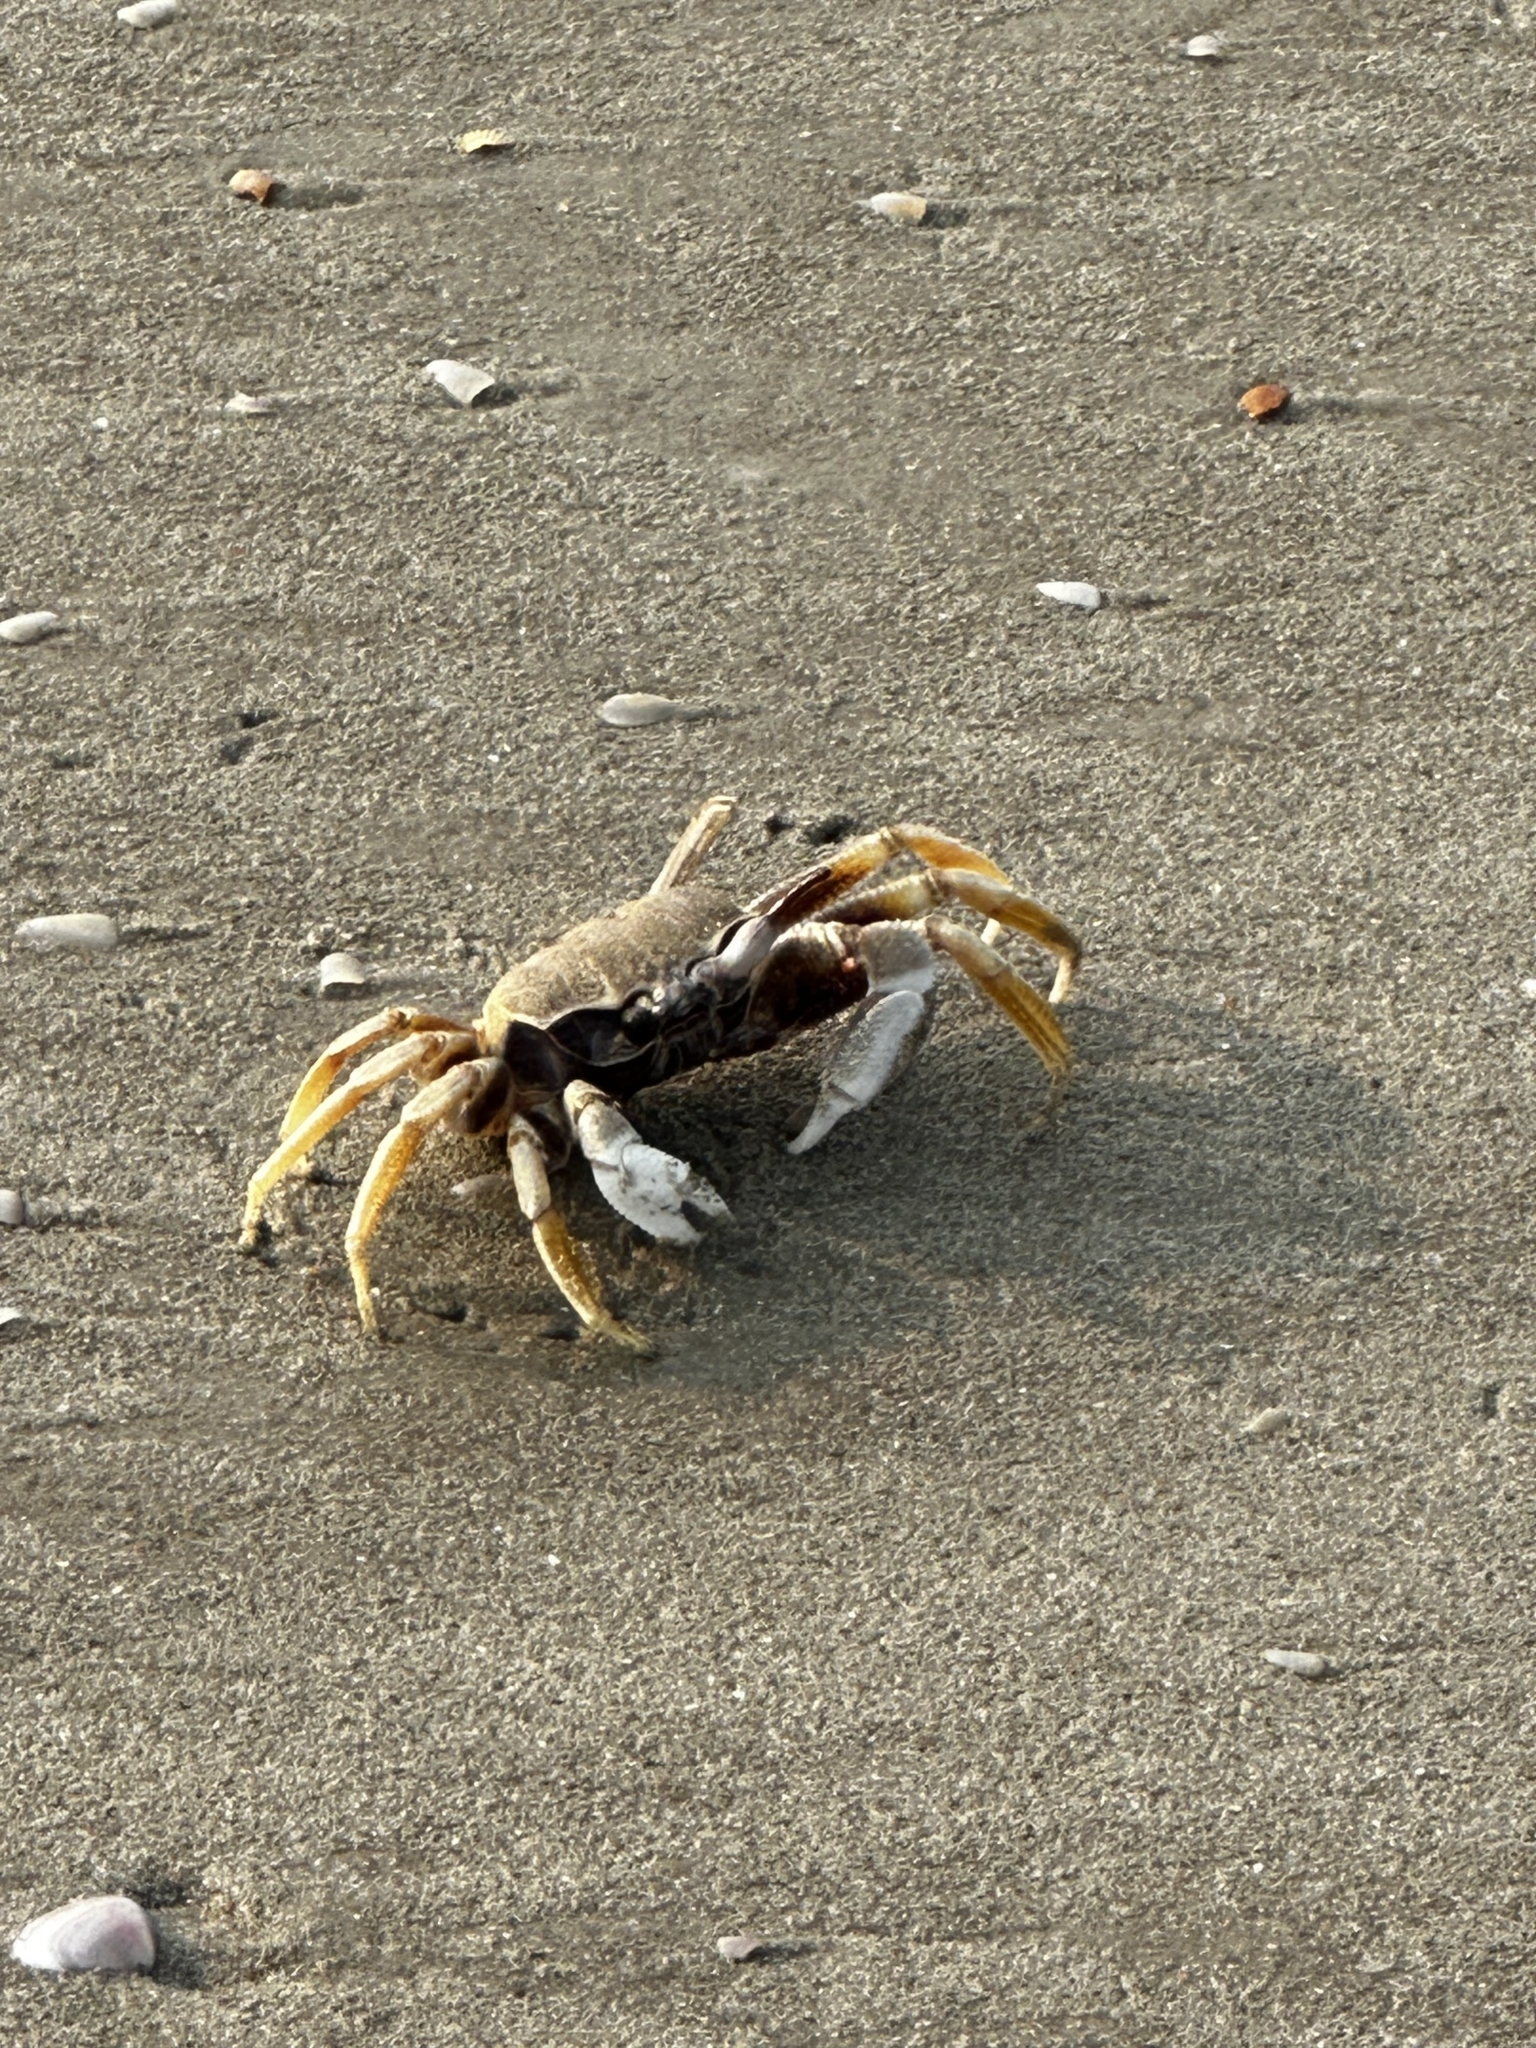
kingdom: Animalia
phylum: Arthropoda
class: Malacostraca
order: Decapoda
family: Ocypodidae
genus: Ocypode
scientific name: Ocypode ceratophthalmus
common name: Indo-pacific ghost crab
